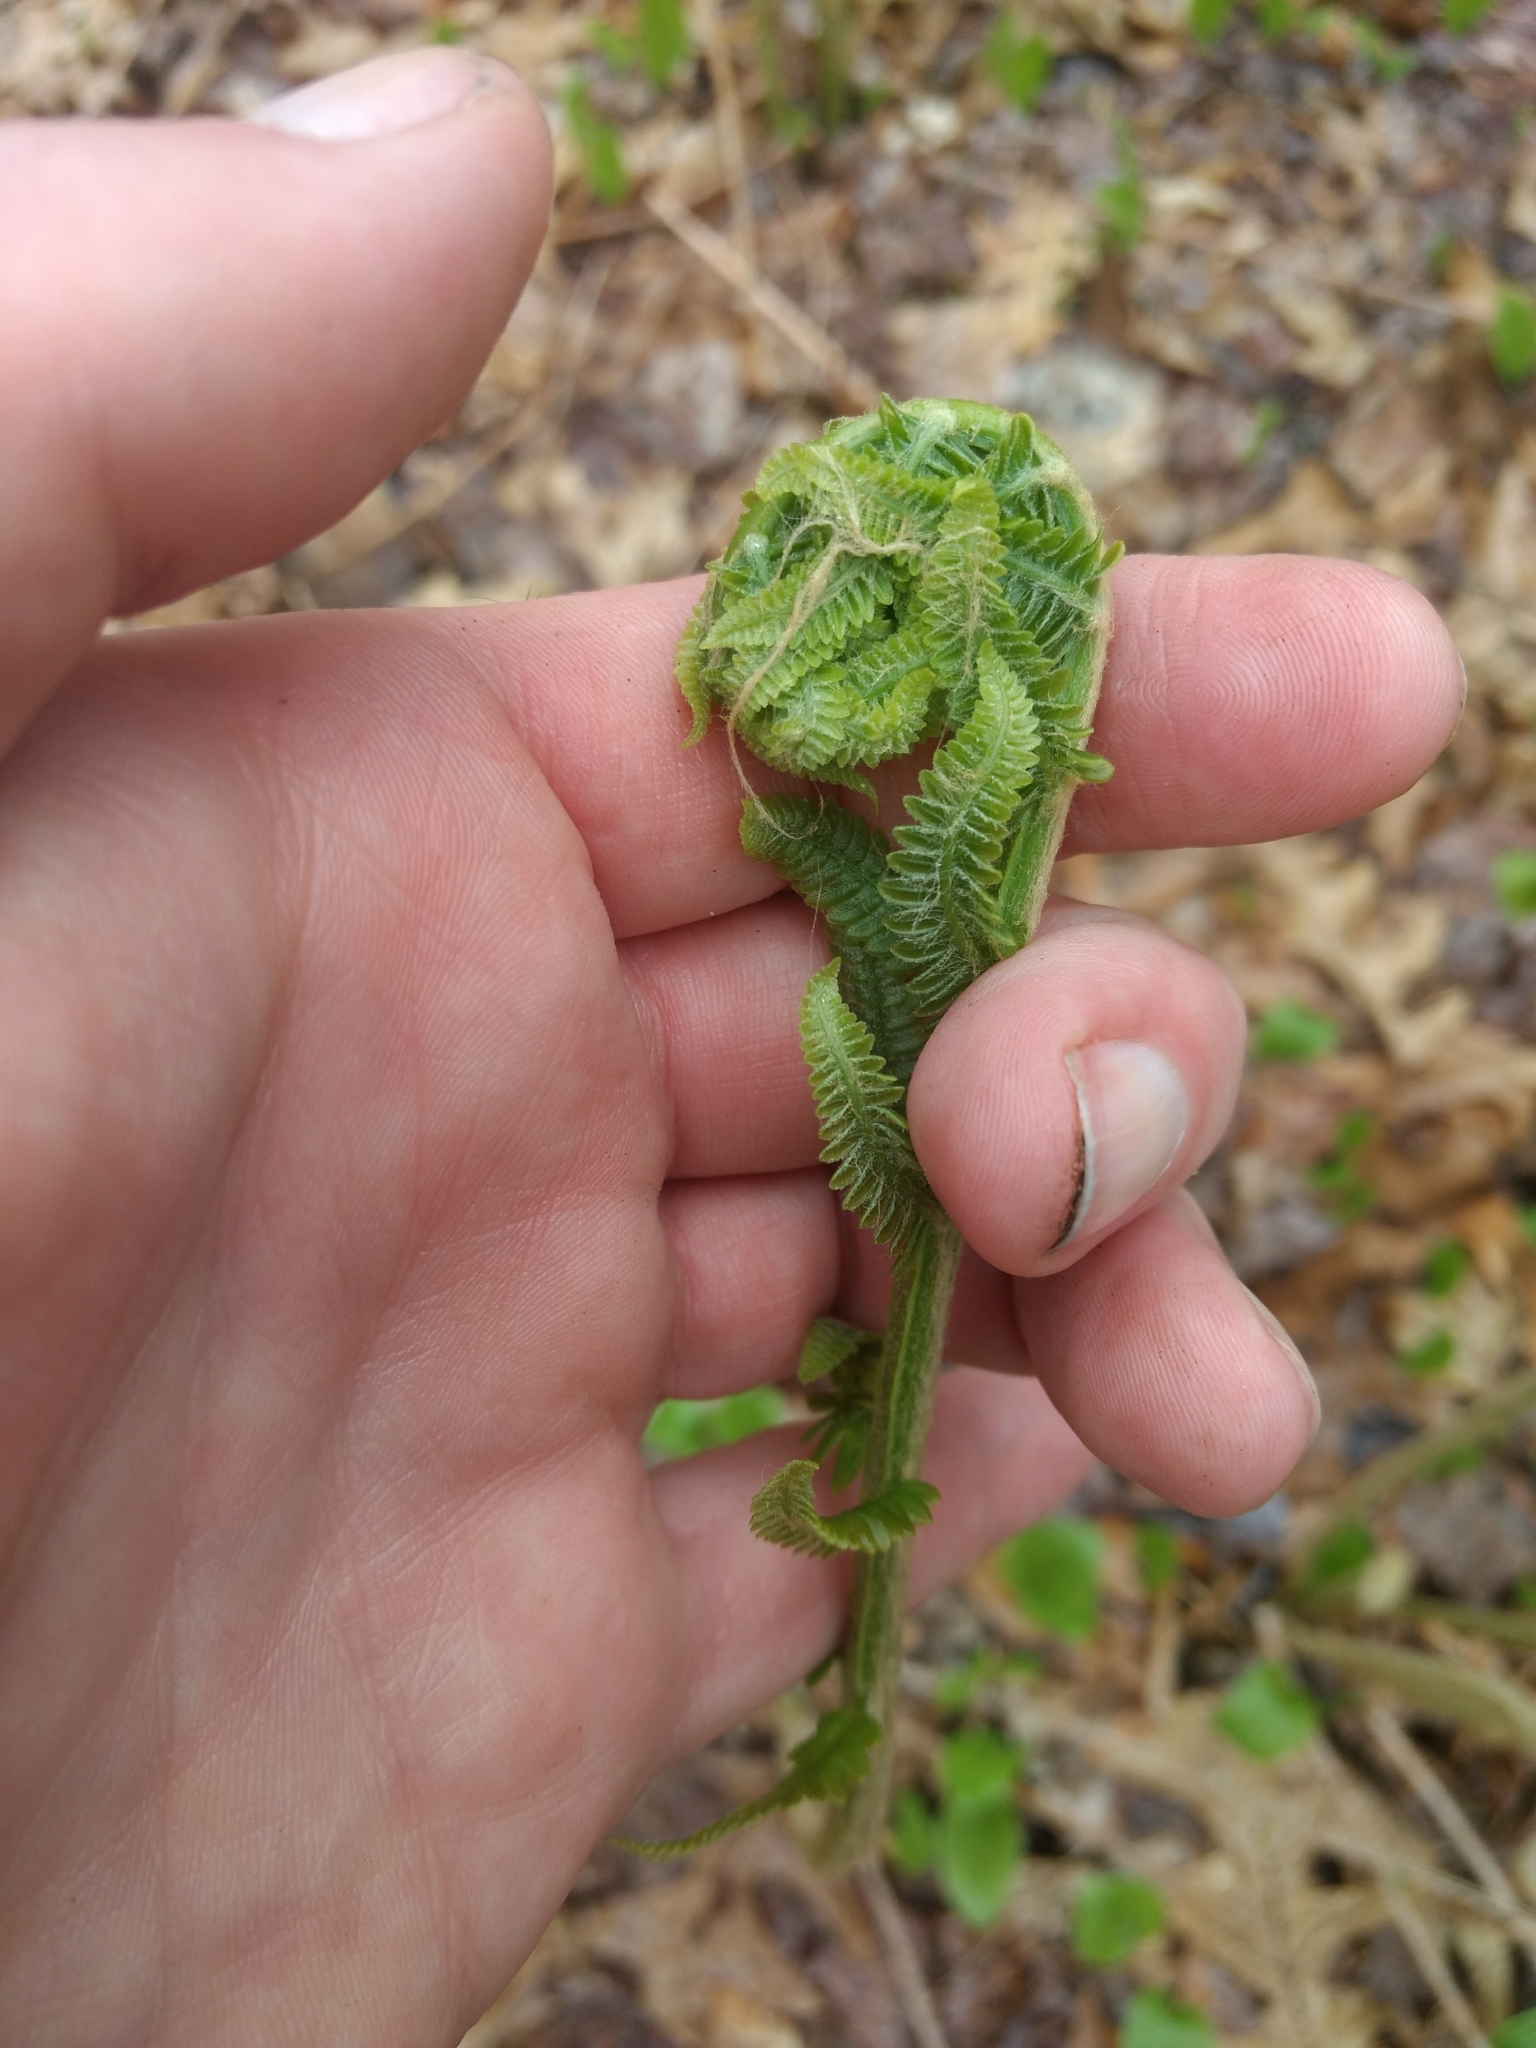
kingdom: Plantae
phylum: Tracheophyta
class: Polypodiopsida
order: Osmundales
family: Osmundaceae
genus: Claytosmunda
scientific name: Claytosmunda claytoniana
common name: Clayton's fern
